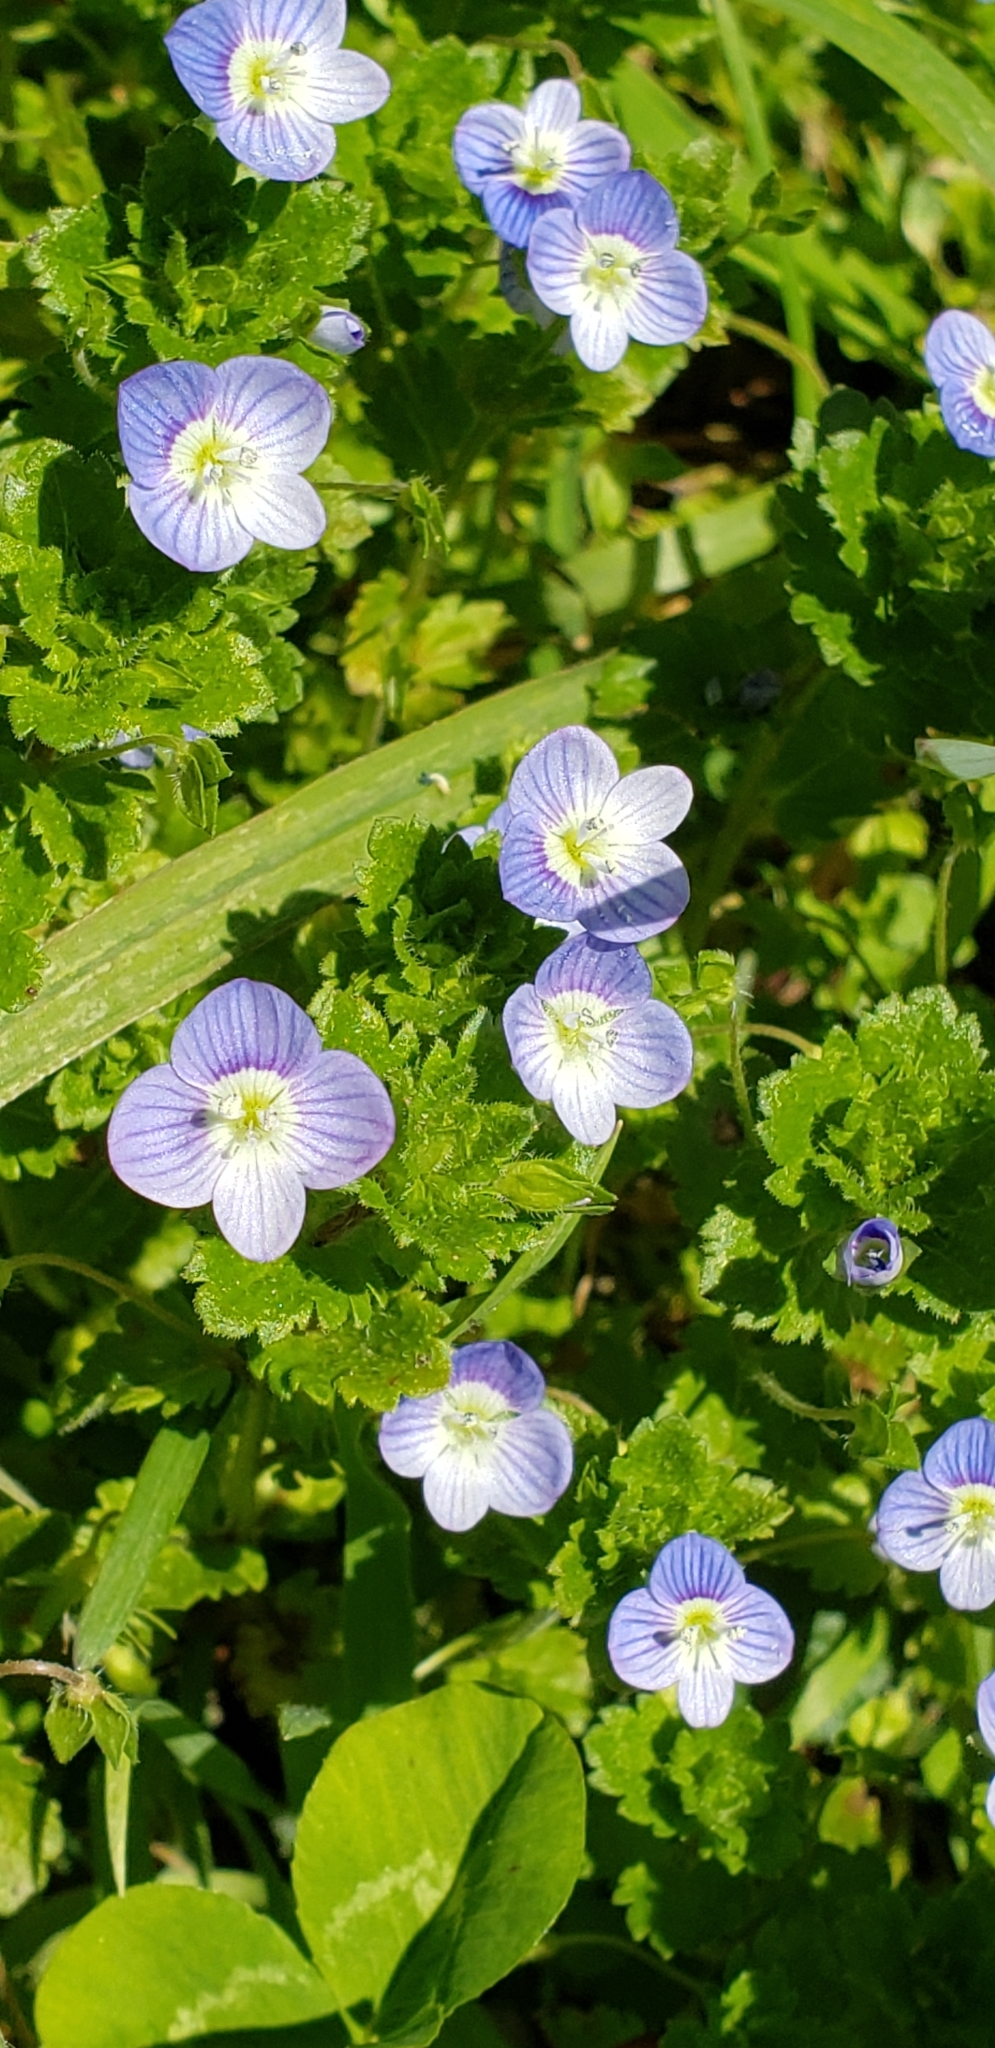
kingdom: Plantae
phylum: Tracheophyta
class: Magnoliopsida
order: Lamiales
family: Plantaginaceae
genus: Veronica
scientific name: Veronica persica
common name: Common field-speedwell
